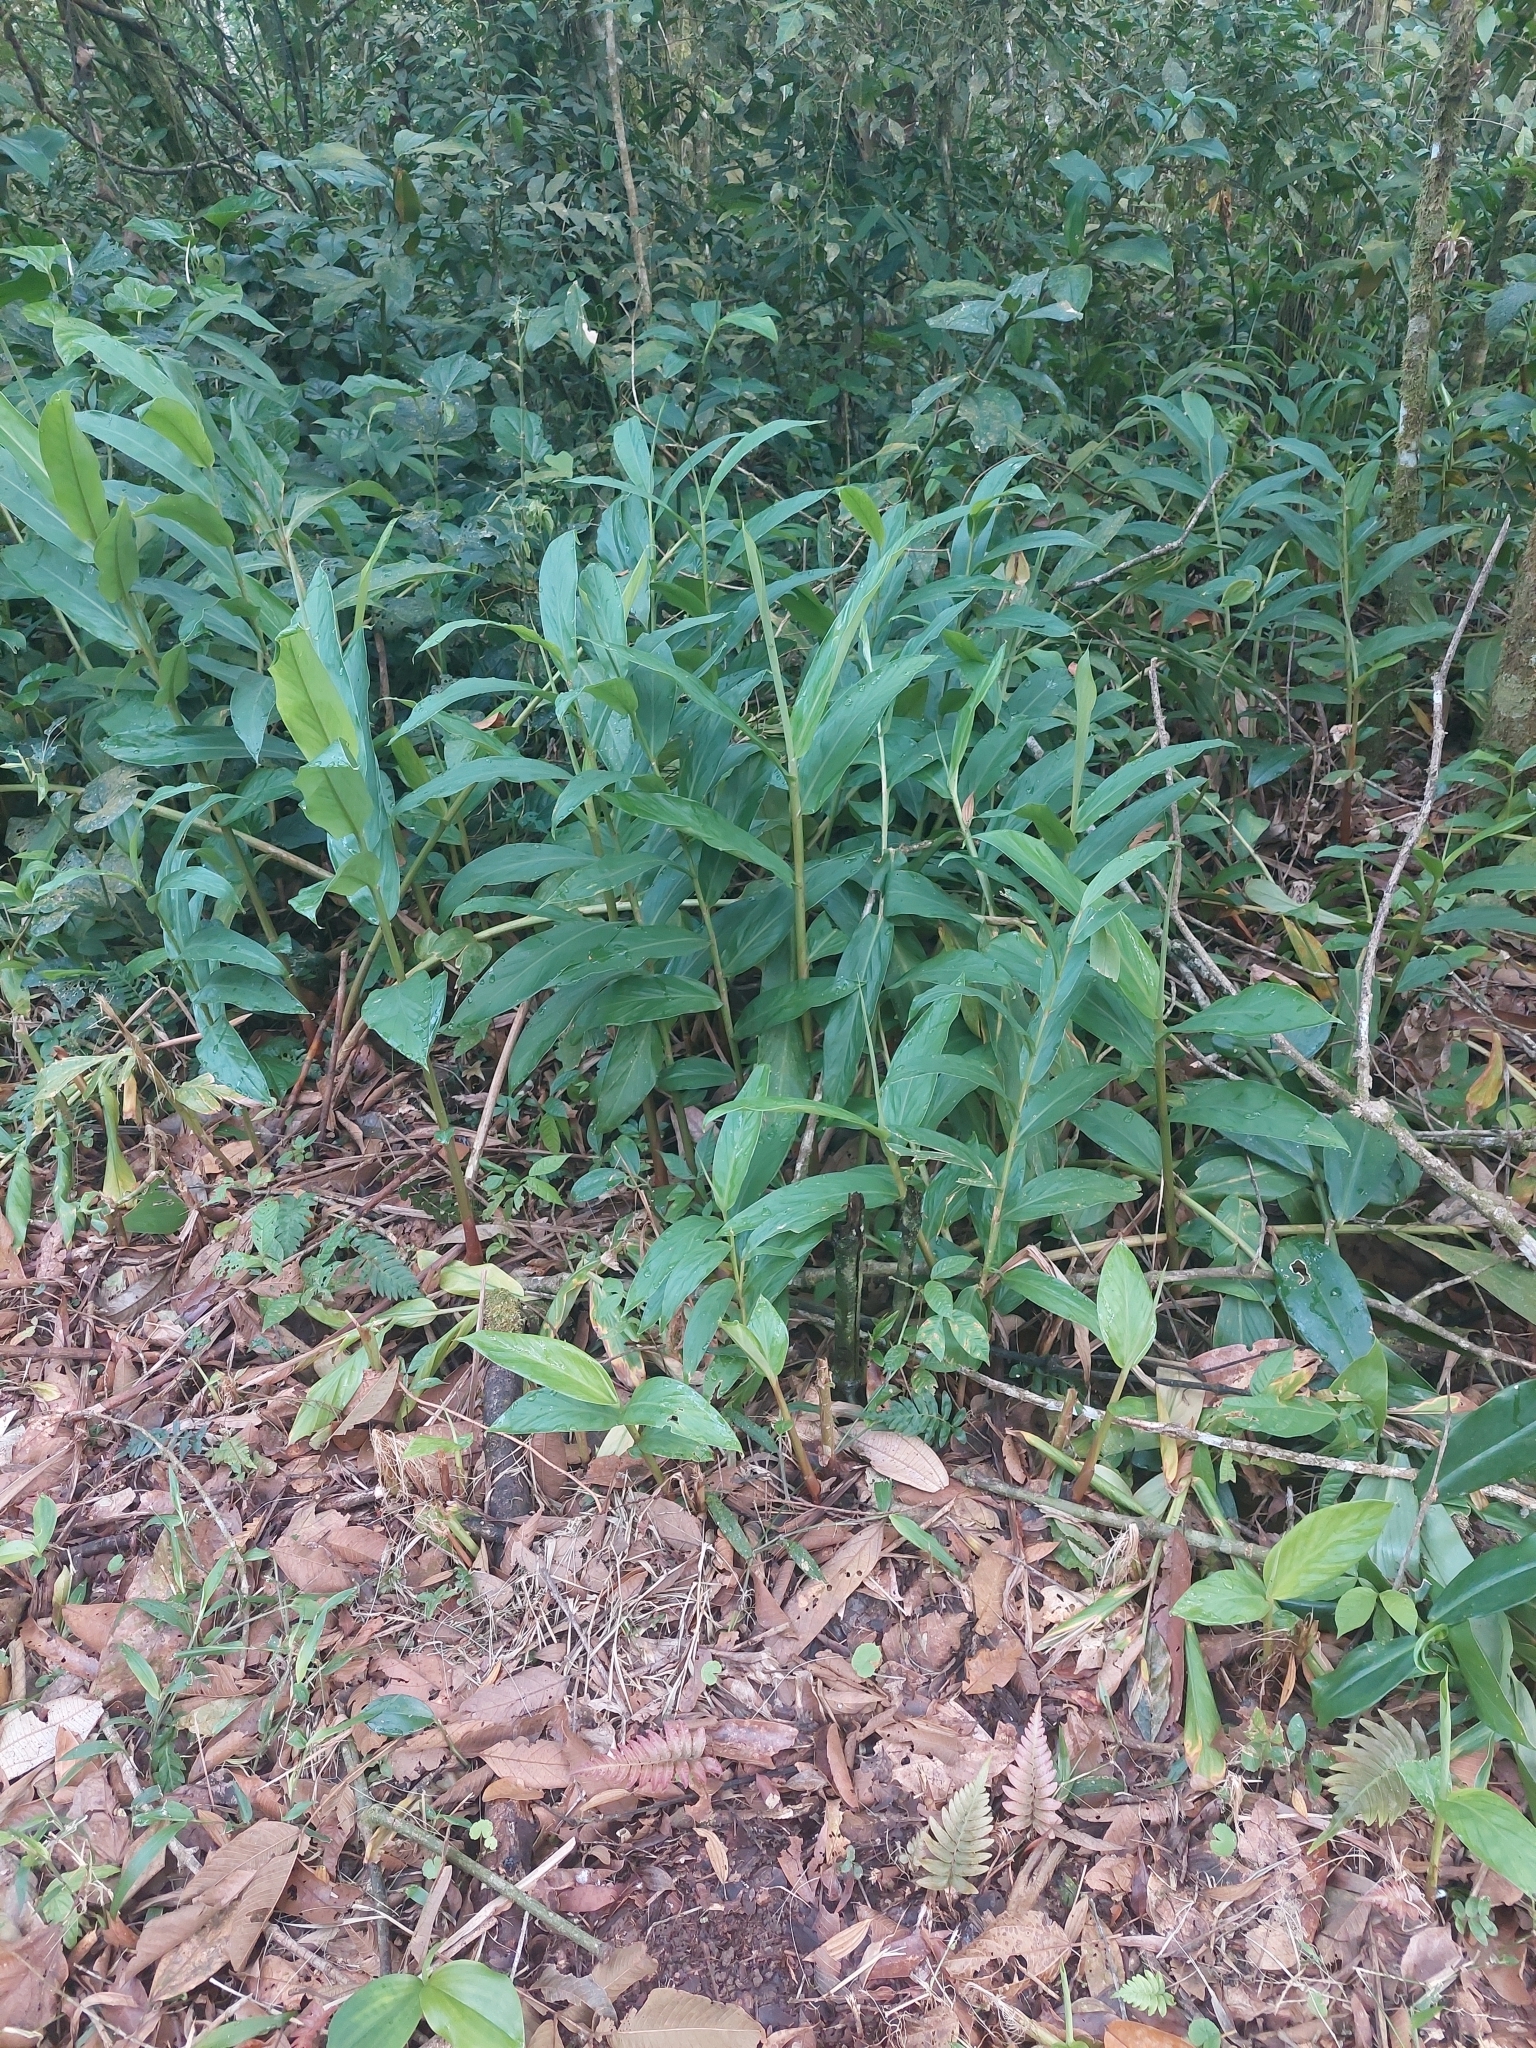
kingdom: Plantae
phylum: Tracheophyta
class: Liliopsida
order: Zingiberales
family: Zingiberaceae
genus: Hedychium
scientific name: Hedychium coronarium
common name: White garland-lily
